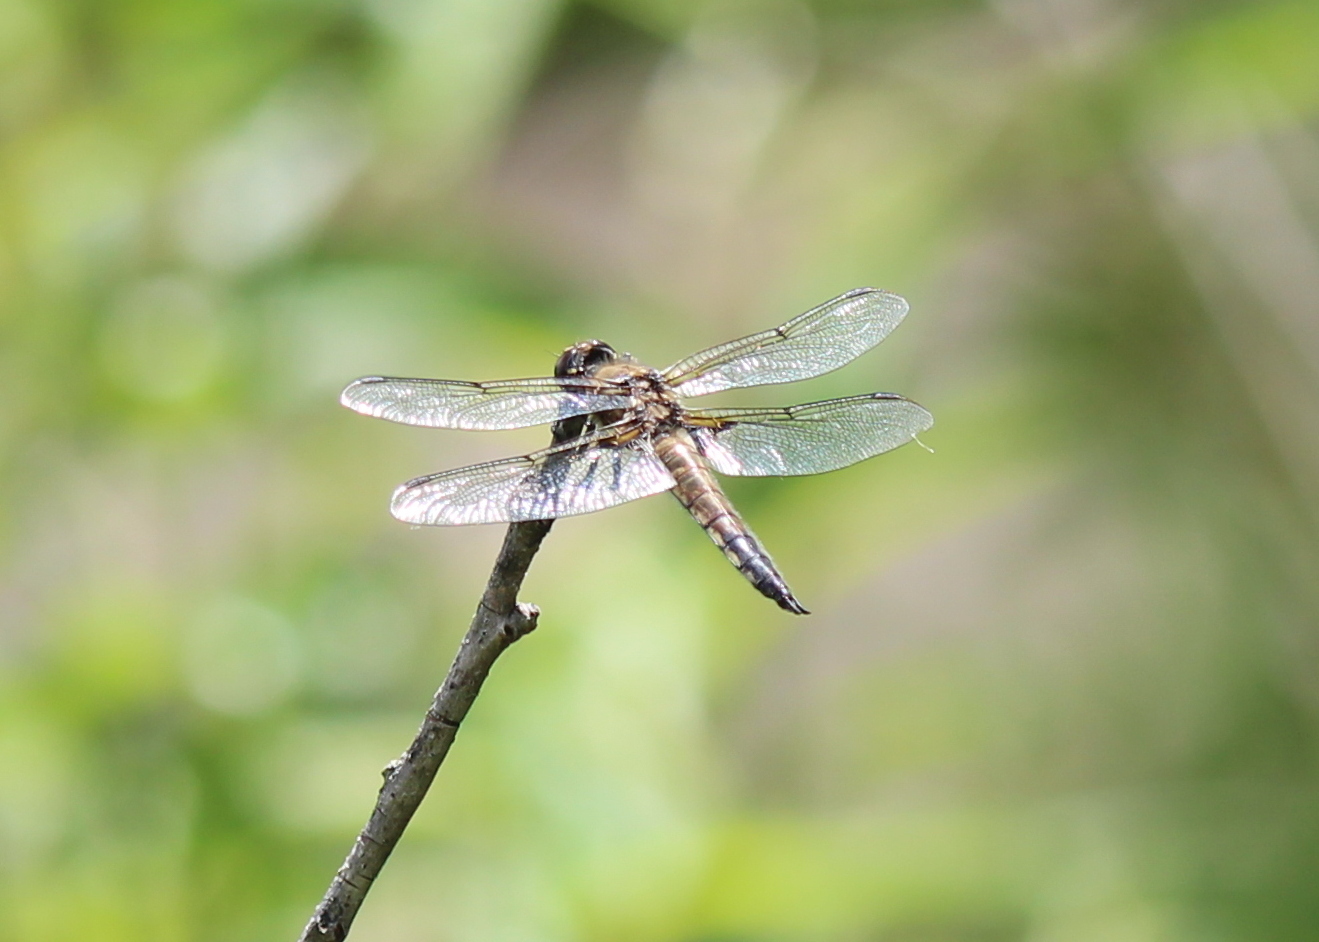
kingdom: Animalia
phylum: Arthropoda
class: Insecta
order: Odonata
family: Libellulidae
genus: Libellula
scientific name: Libellula quadrimaculata
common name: Four-spotted chaser
